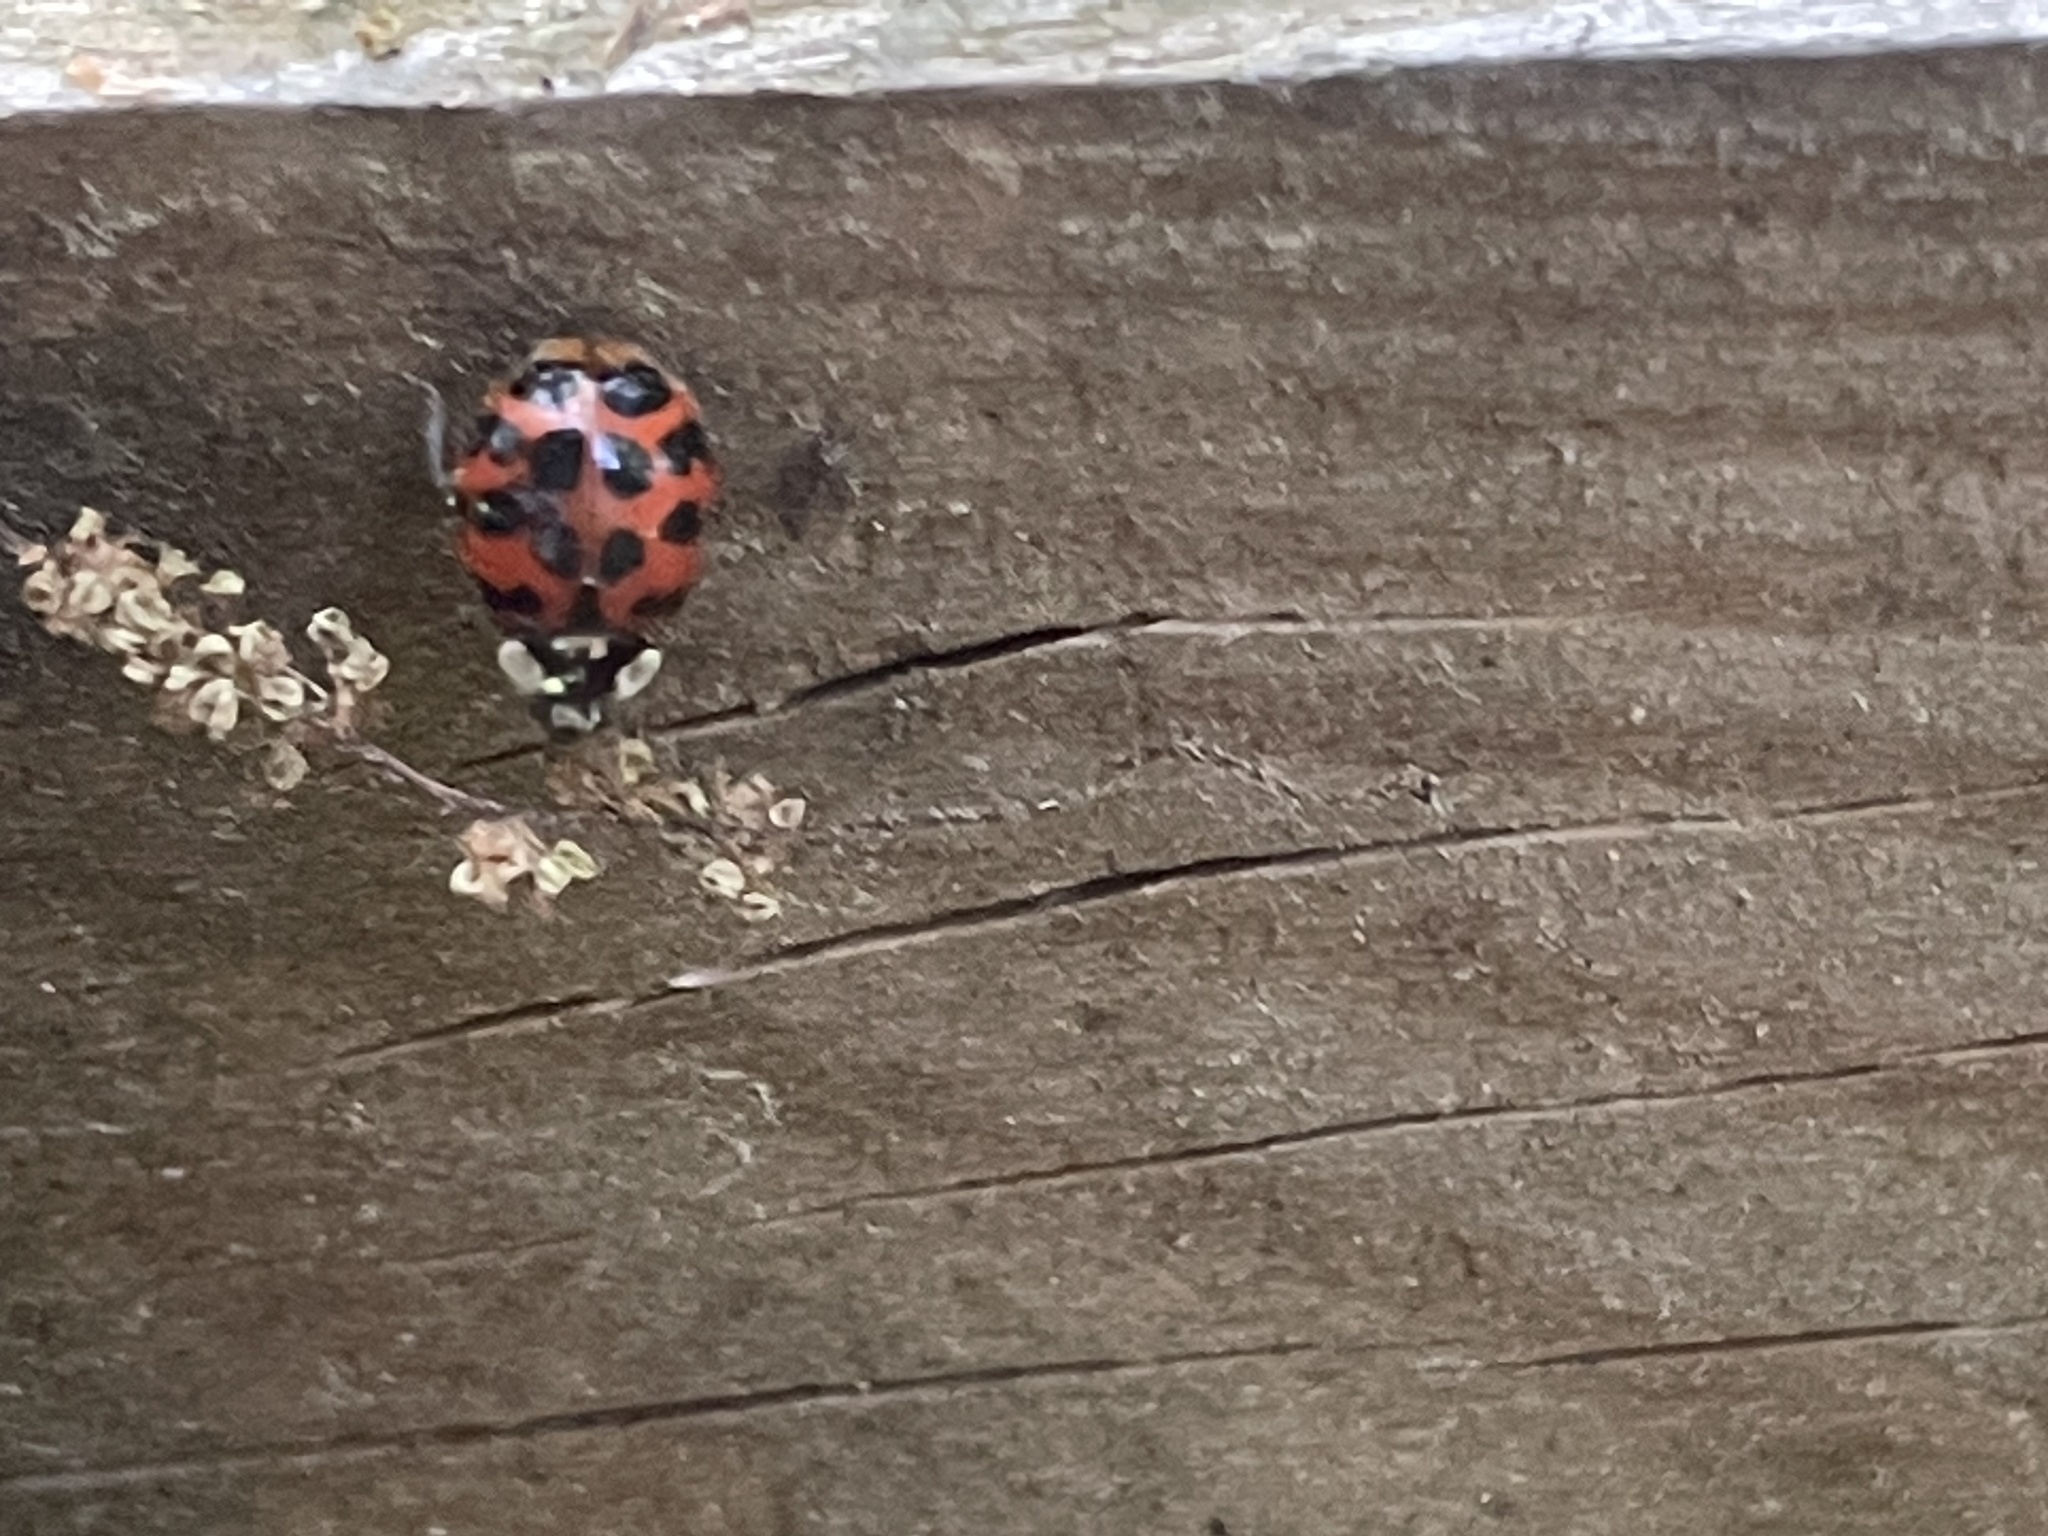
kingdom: Animalia
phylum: Arthropoda
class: Insecta
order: Coleoptera
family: Coccinellidae
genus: Harmonia
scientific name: Harmonia axyridis
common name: Harlequin ladybird
